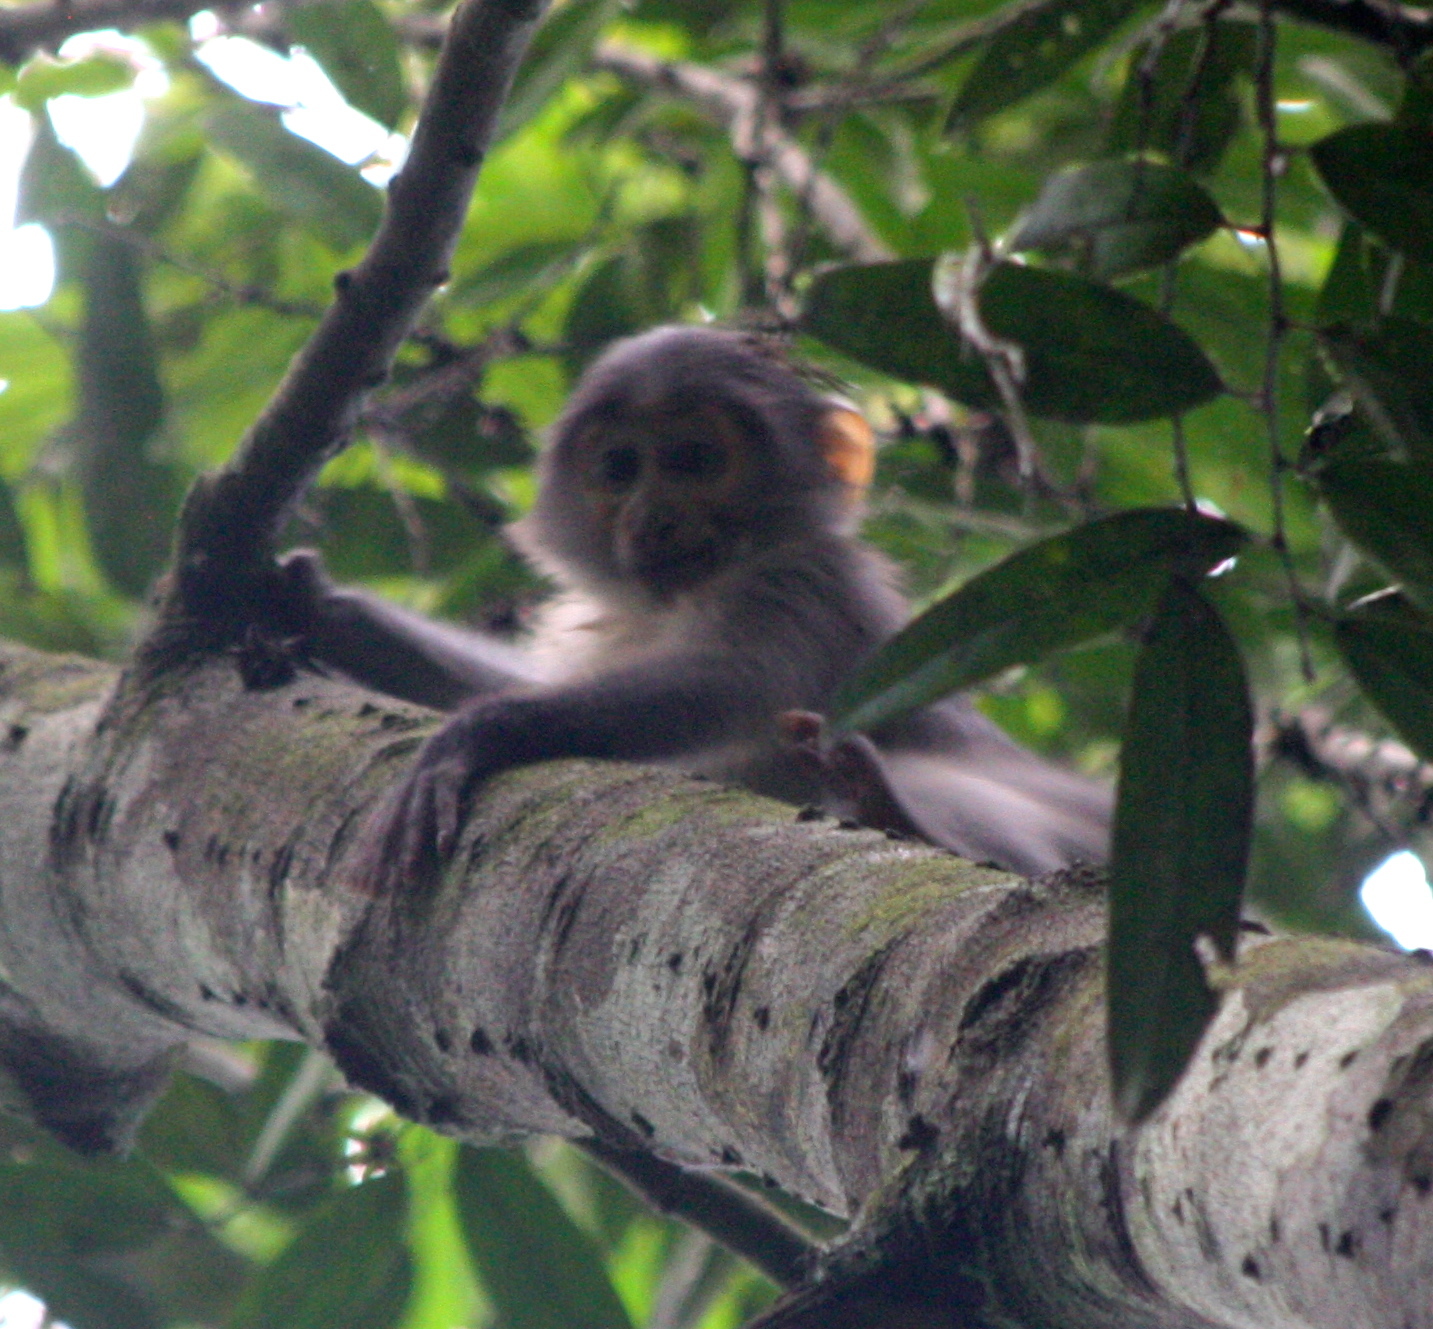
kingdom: Animalia
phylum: Chordata
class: Mammalia
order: Primates
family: Cercopithecidae
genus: Cercocebus
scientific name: Cercocebus atys
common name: Sooty mangabey
